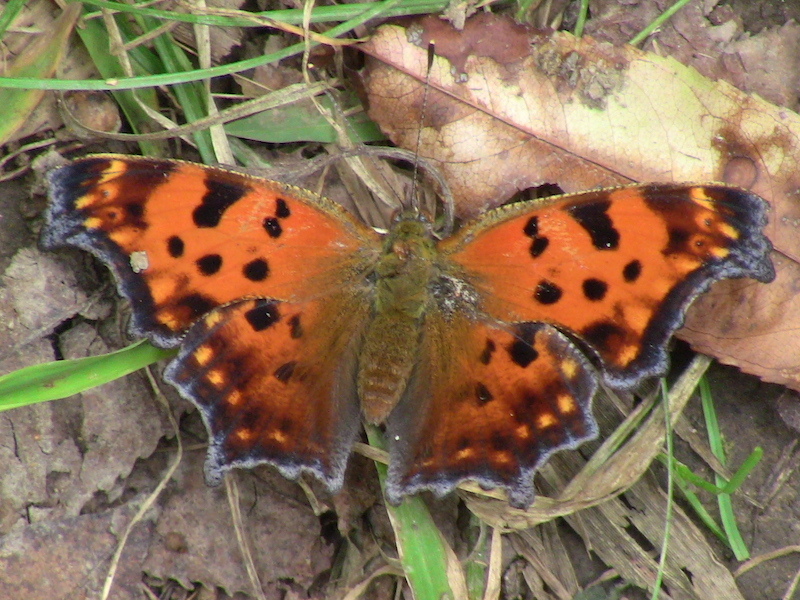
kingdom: Animalia
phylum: Arthropoda
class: Insecta
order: Lepidoptera
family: Nymphalidae
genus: Polygonia
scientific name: Polygonia comma
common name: Eastern comma
